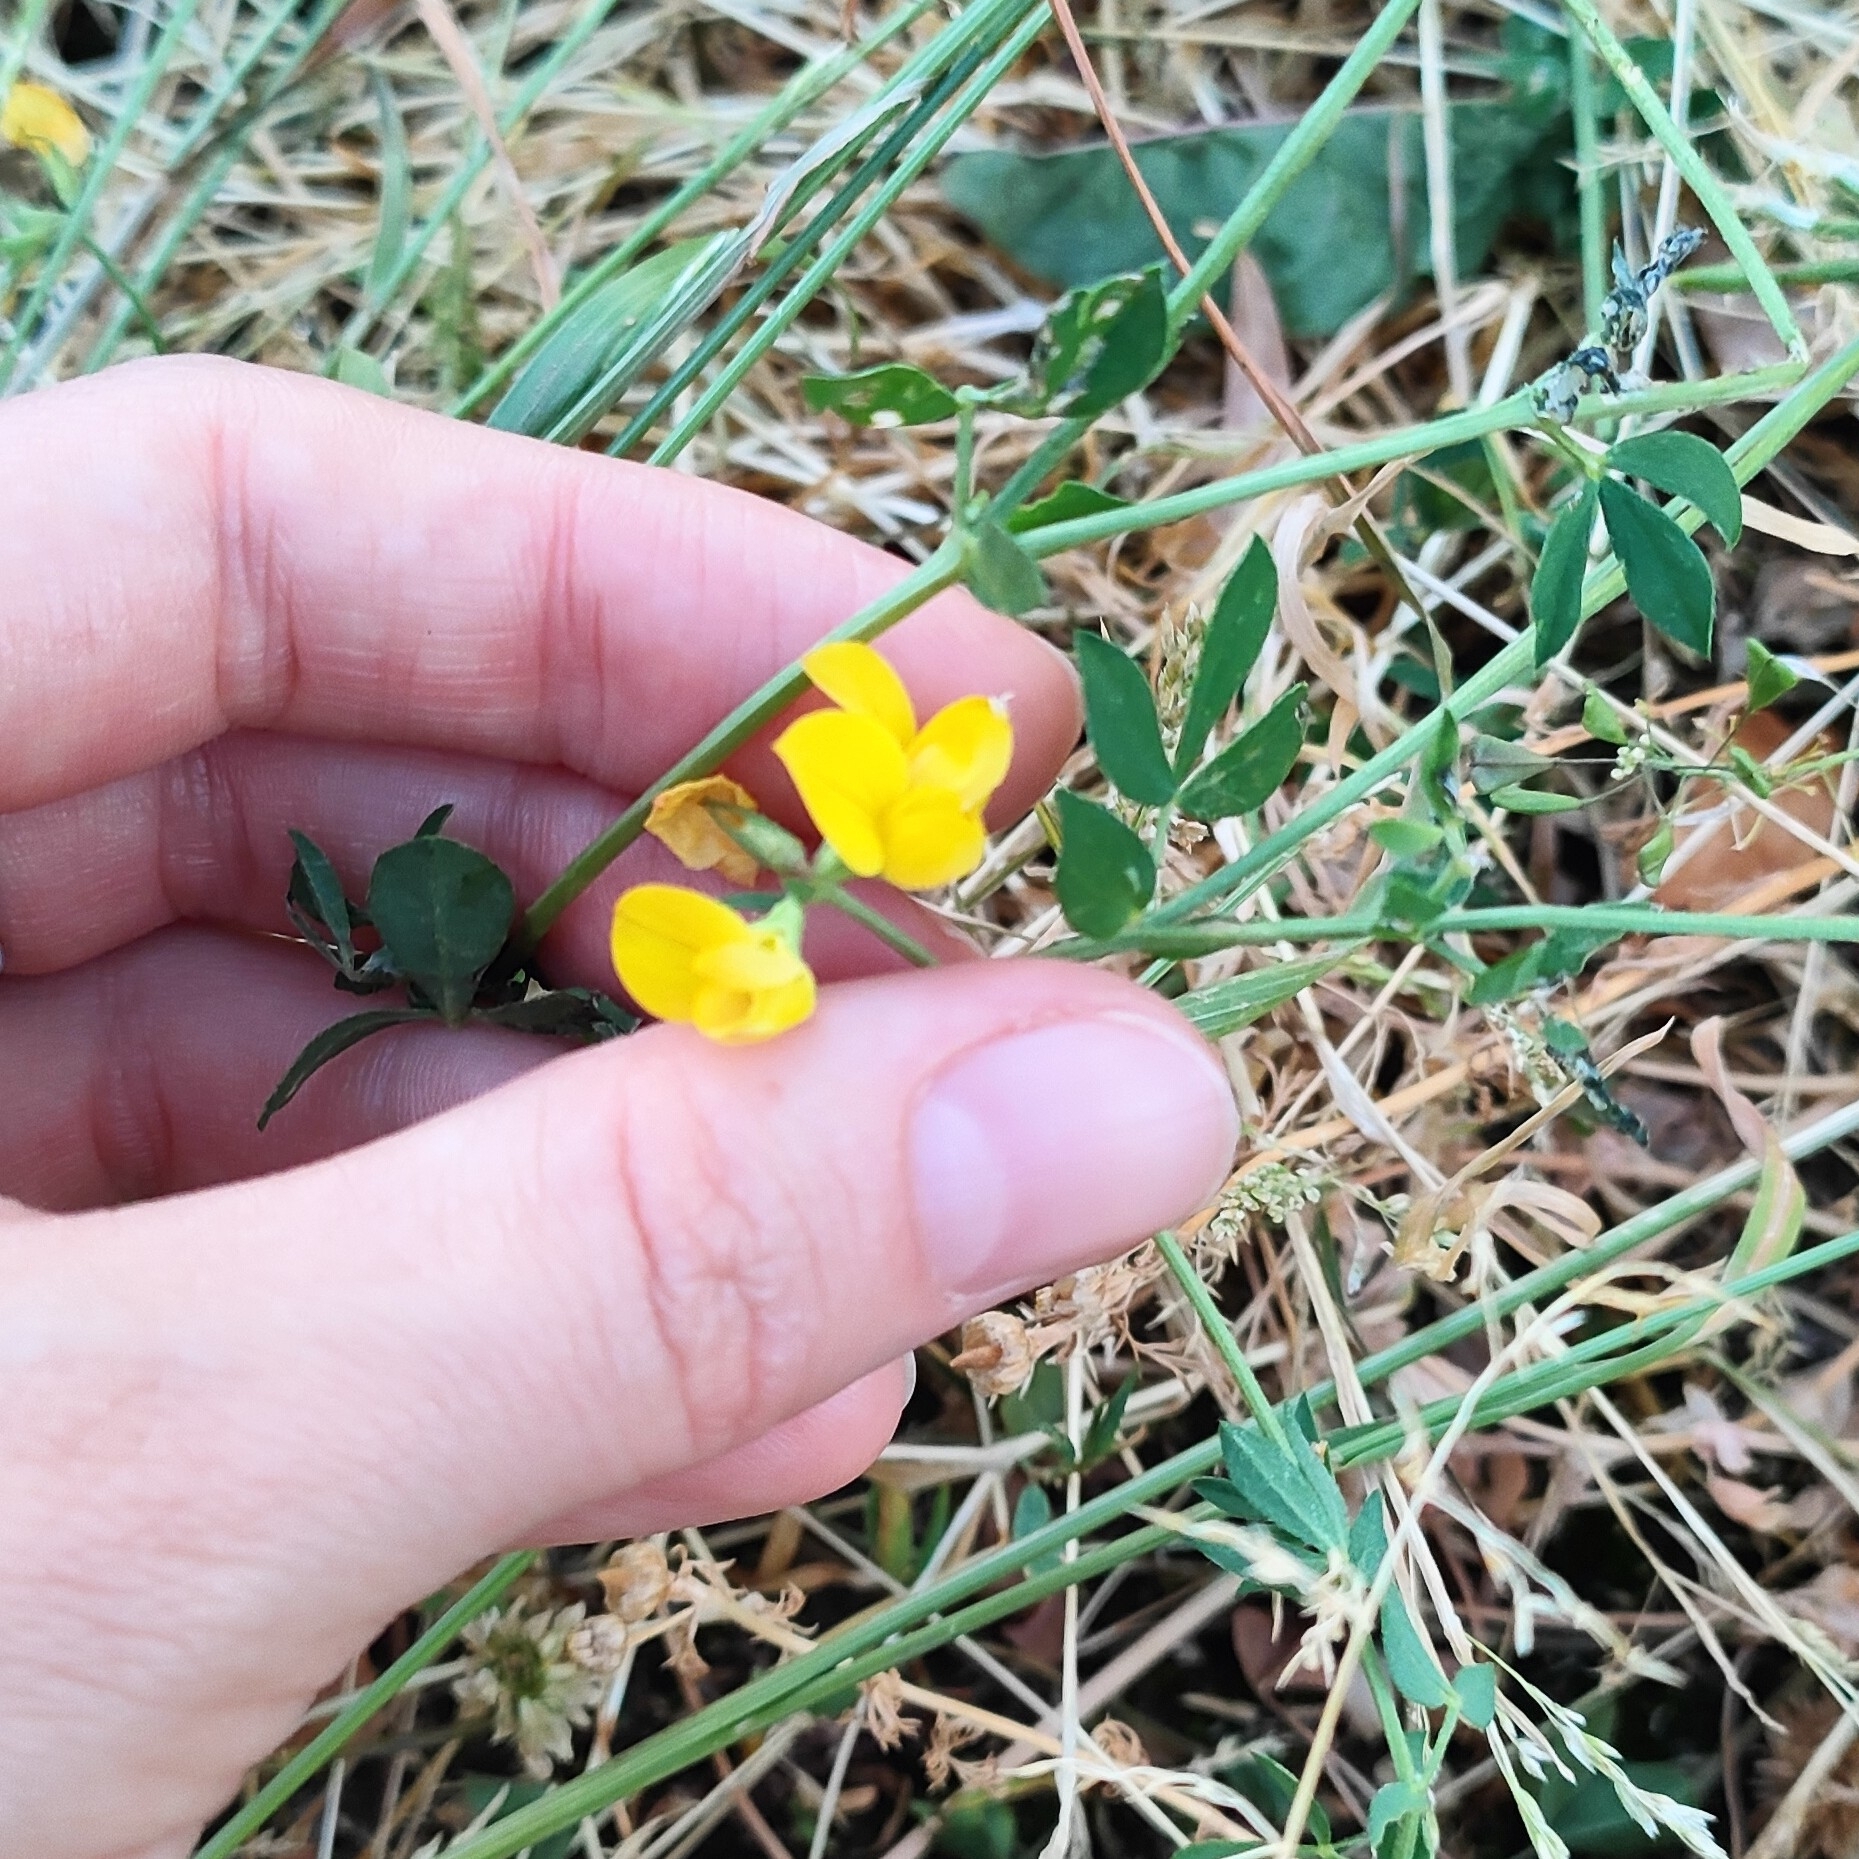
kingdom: Plantae
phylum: Tracheophyta
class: Magnoliopsida
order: Fabales
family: Fabaceae
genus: Lotus
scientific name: Lotus corniculatus
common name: Common bird's-foot-trefoil
